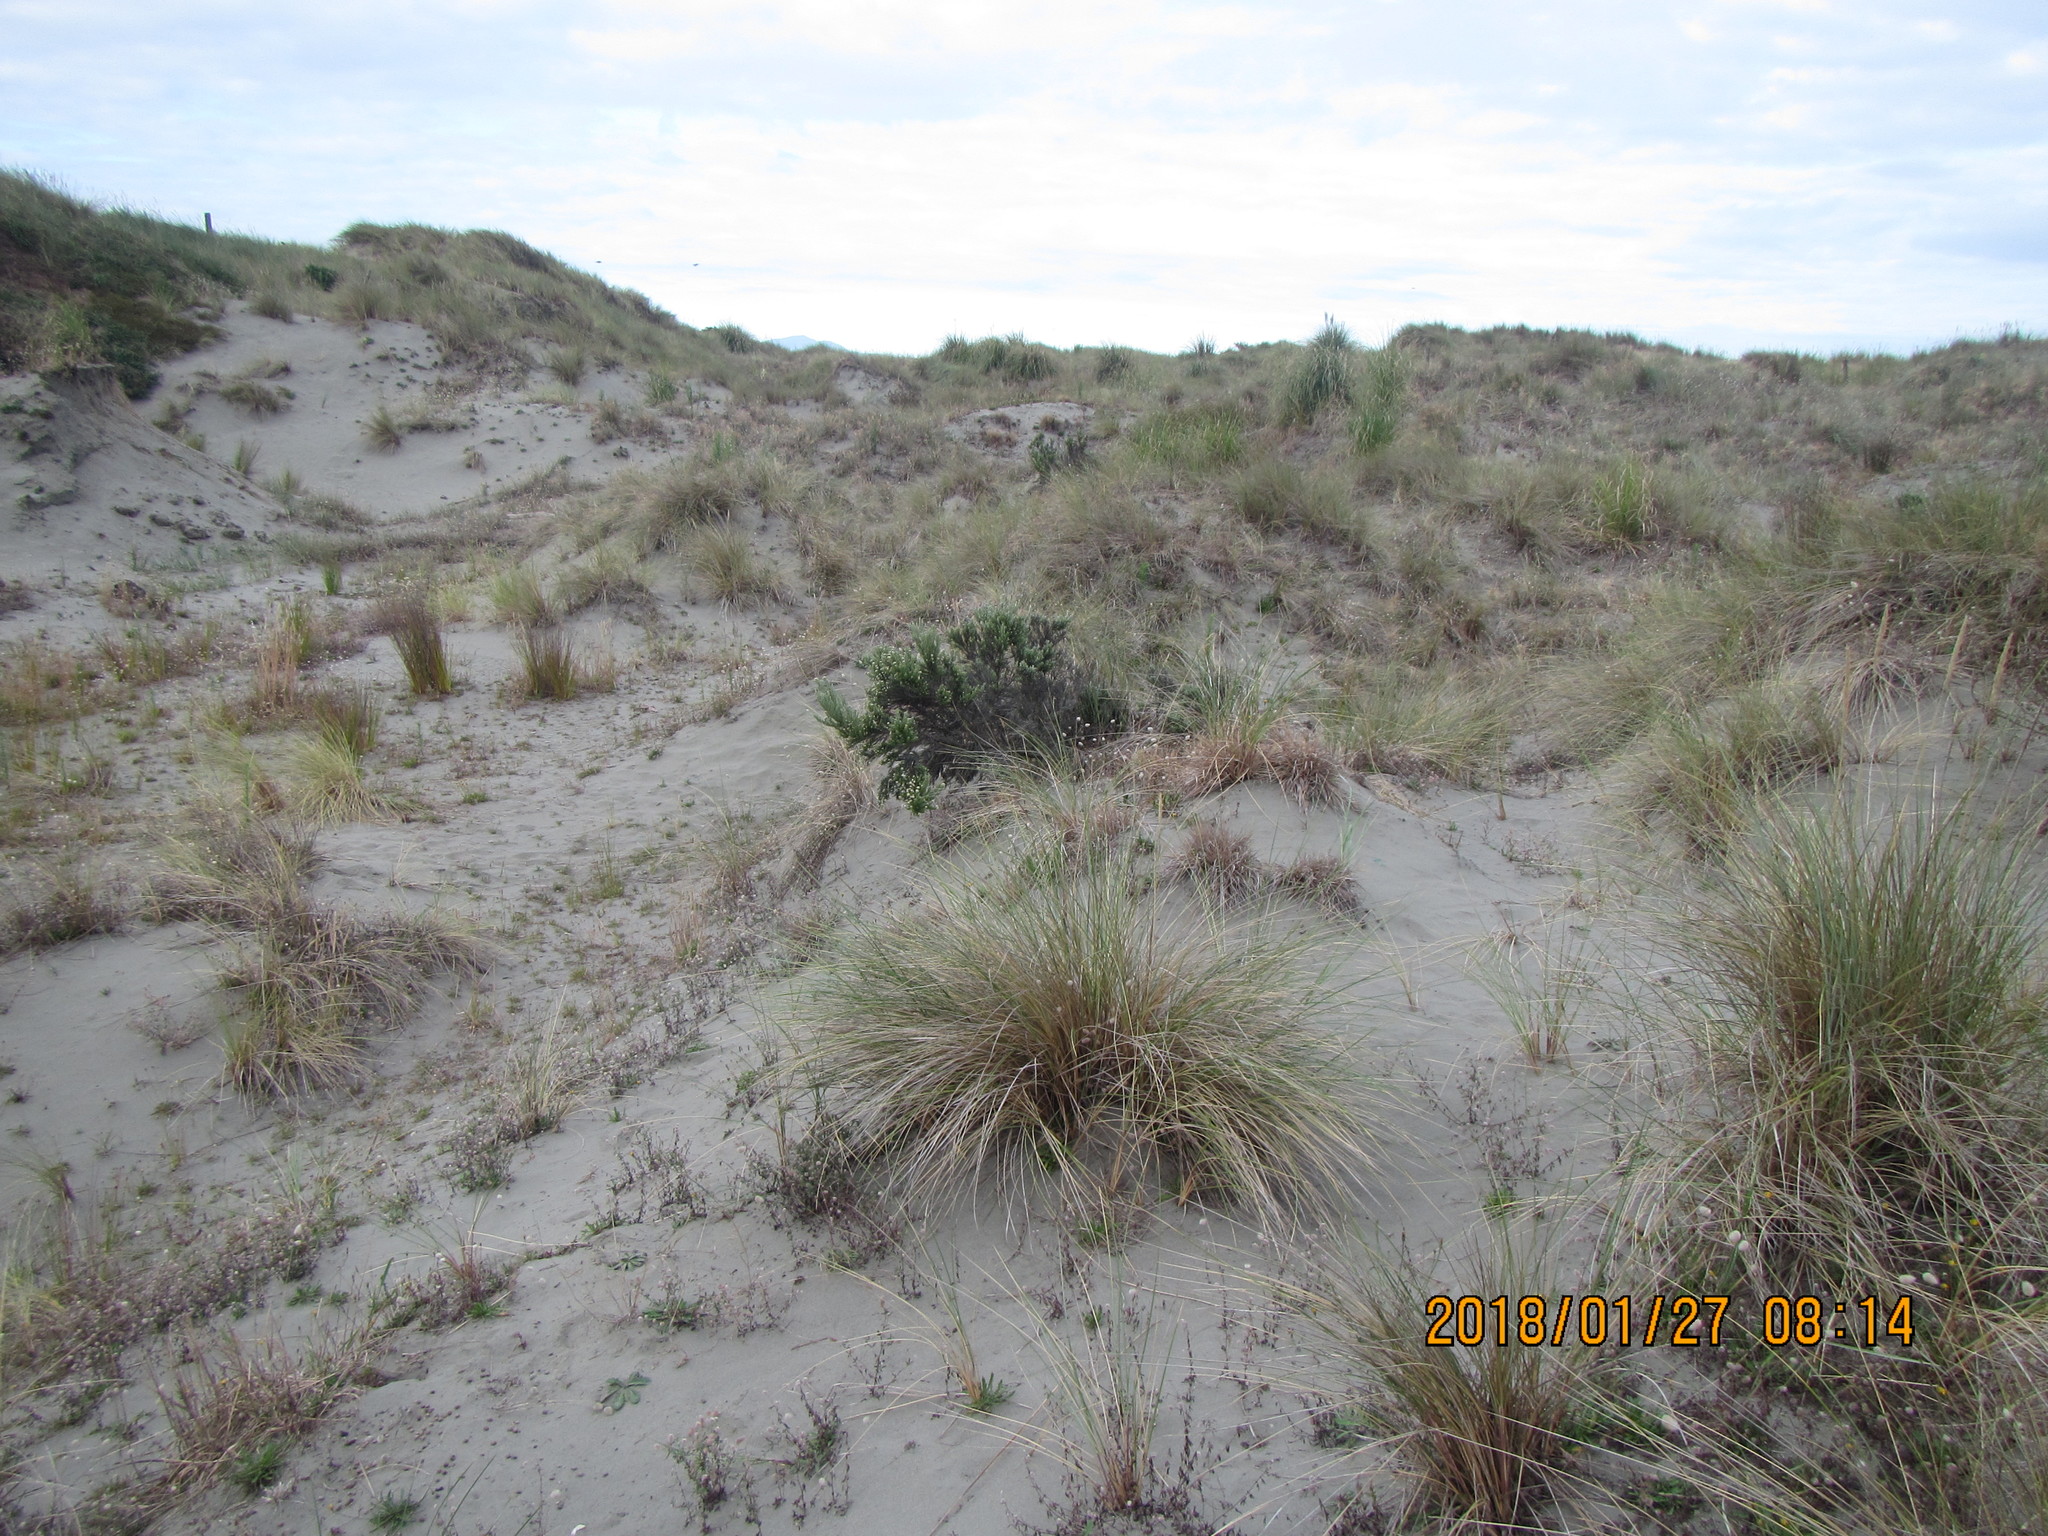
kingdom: Plantae
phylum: Tracheophyta
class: Magnoliopsida
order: Asterales
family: Asteraceae
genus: Ozothamnus
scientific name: Ozothamnus leptophyllus
